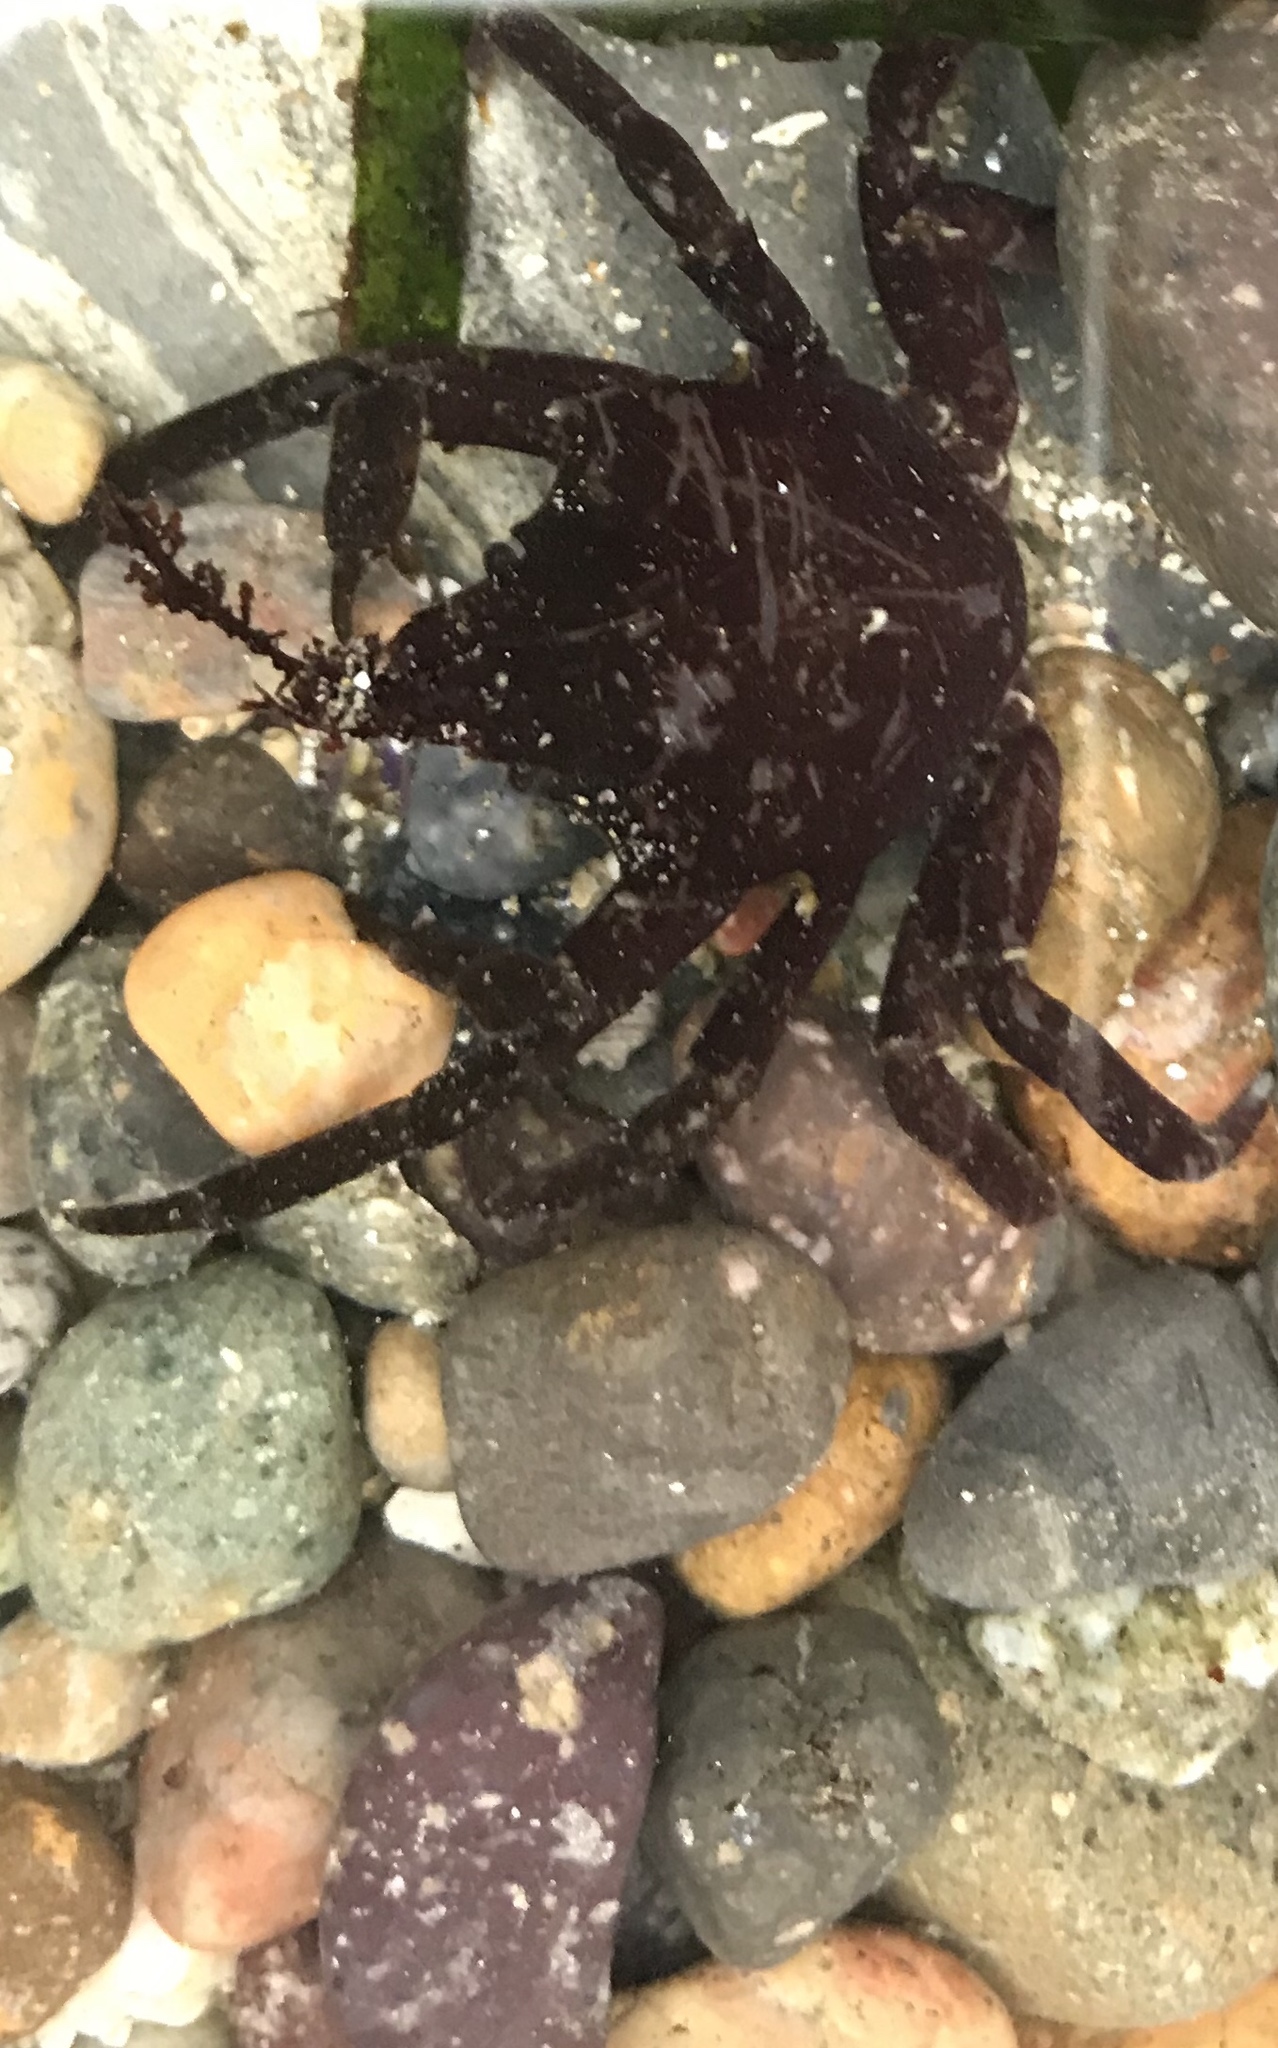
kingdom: Animalia
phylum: Arthropoda
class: Malacostraca
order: Decapoda
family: Epialtidae
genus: Pugettia
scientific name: Pugettia producta
